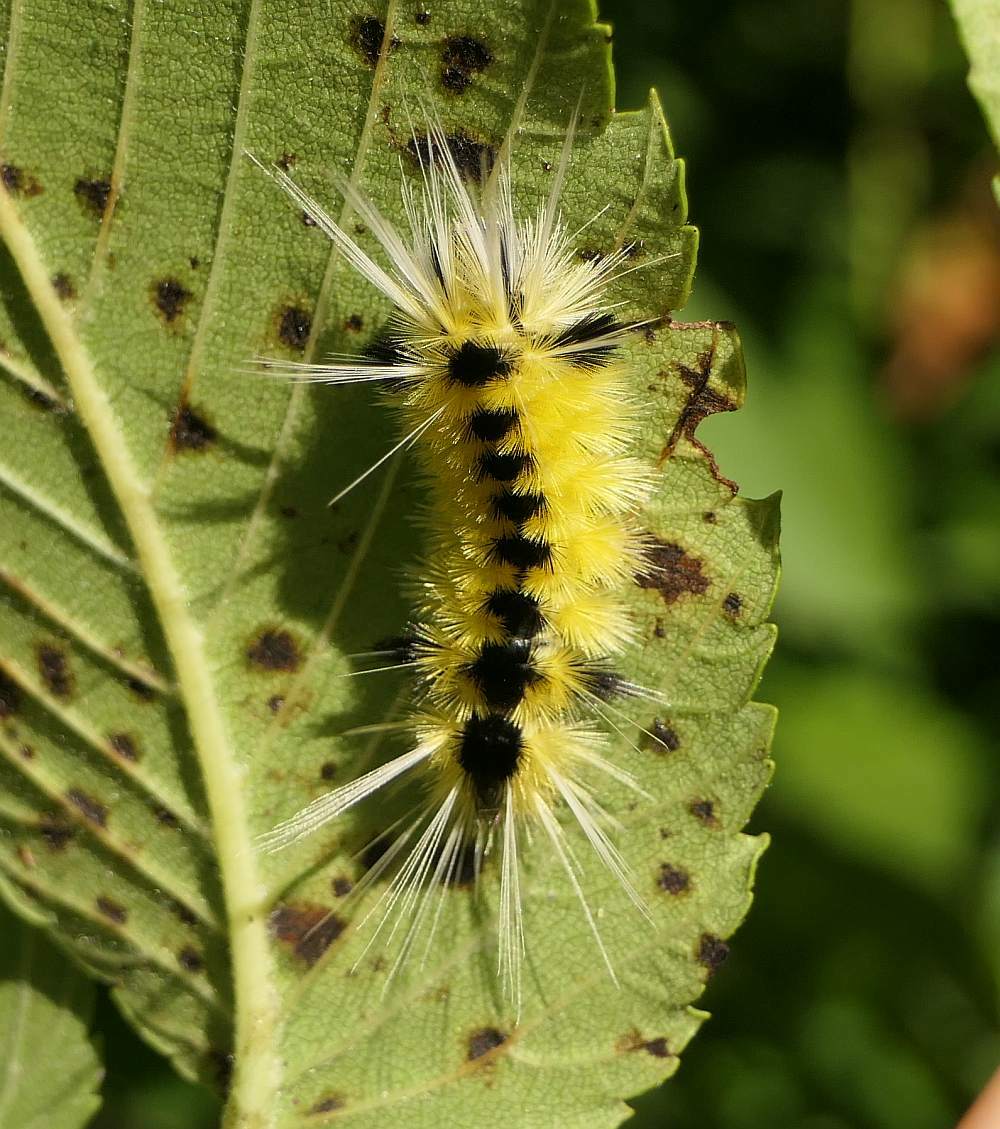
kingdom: Animalia
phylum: Arthropoda
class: Insecta
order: Lepidoptera
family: Erebidae
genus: Lophocampa
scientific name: Lophocampa maculata
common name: Spotted tussock moth
